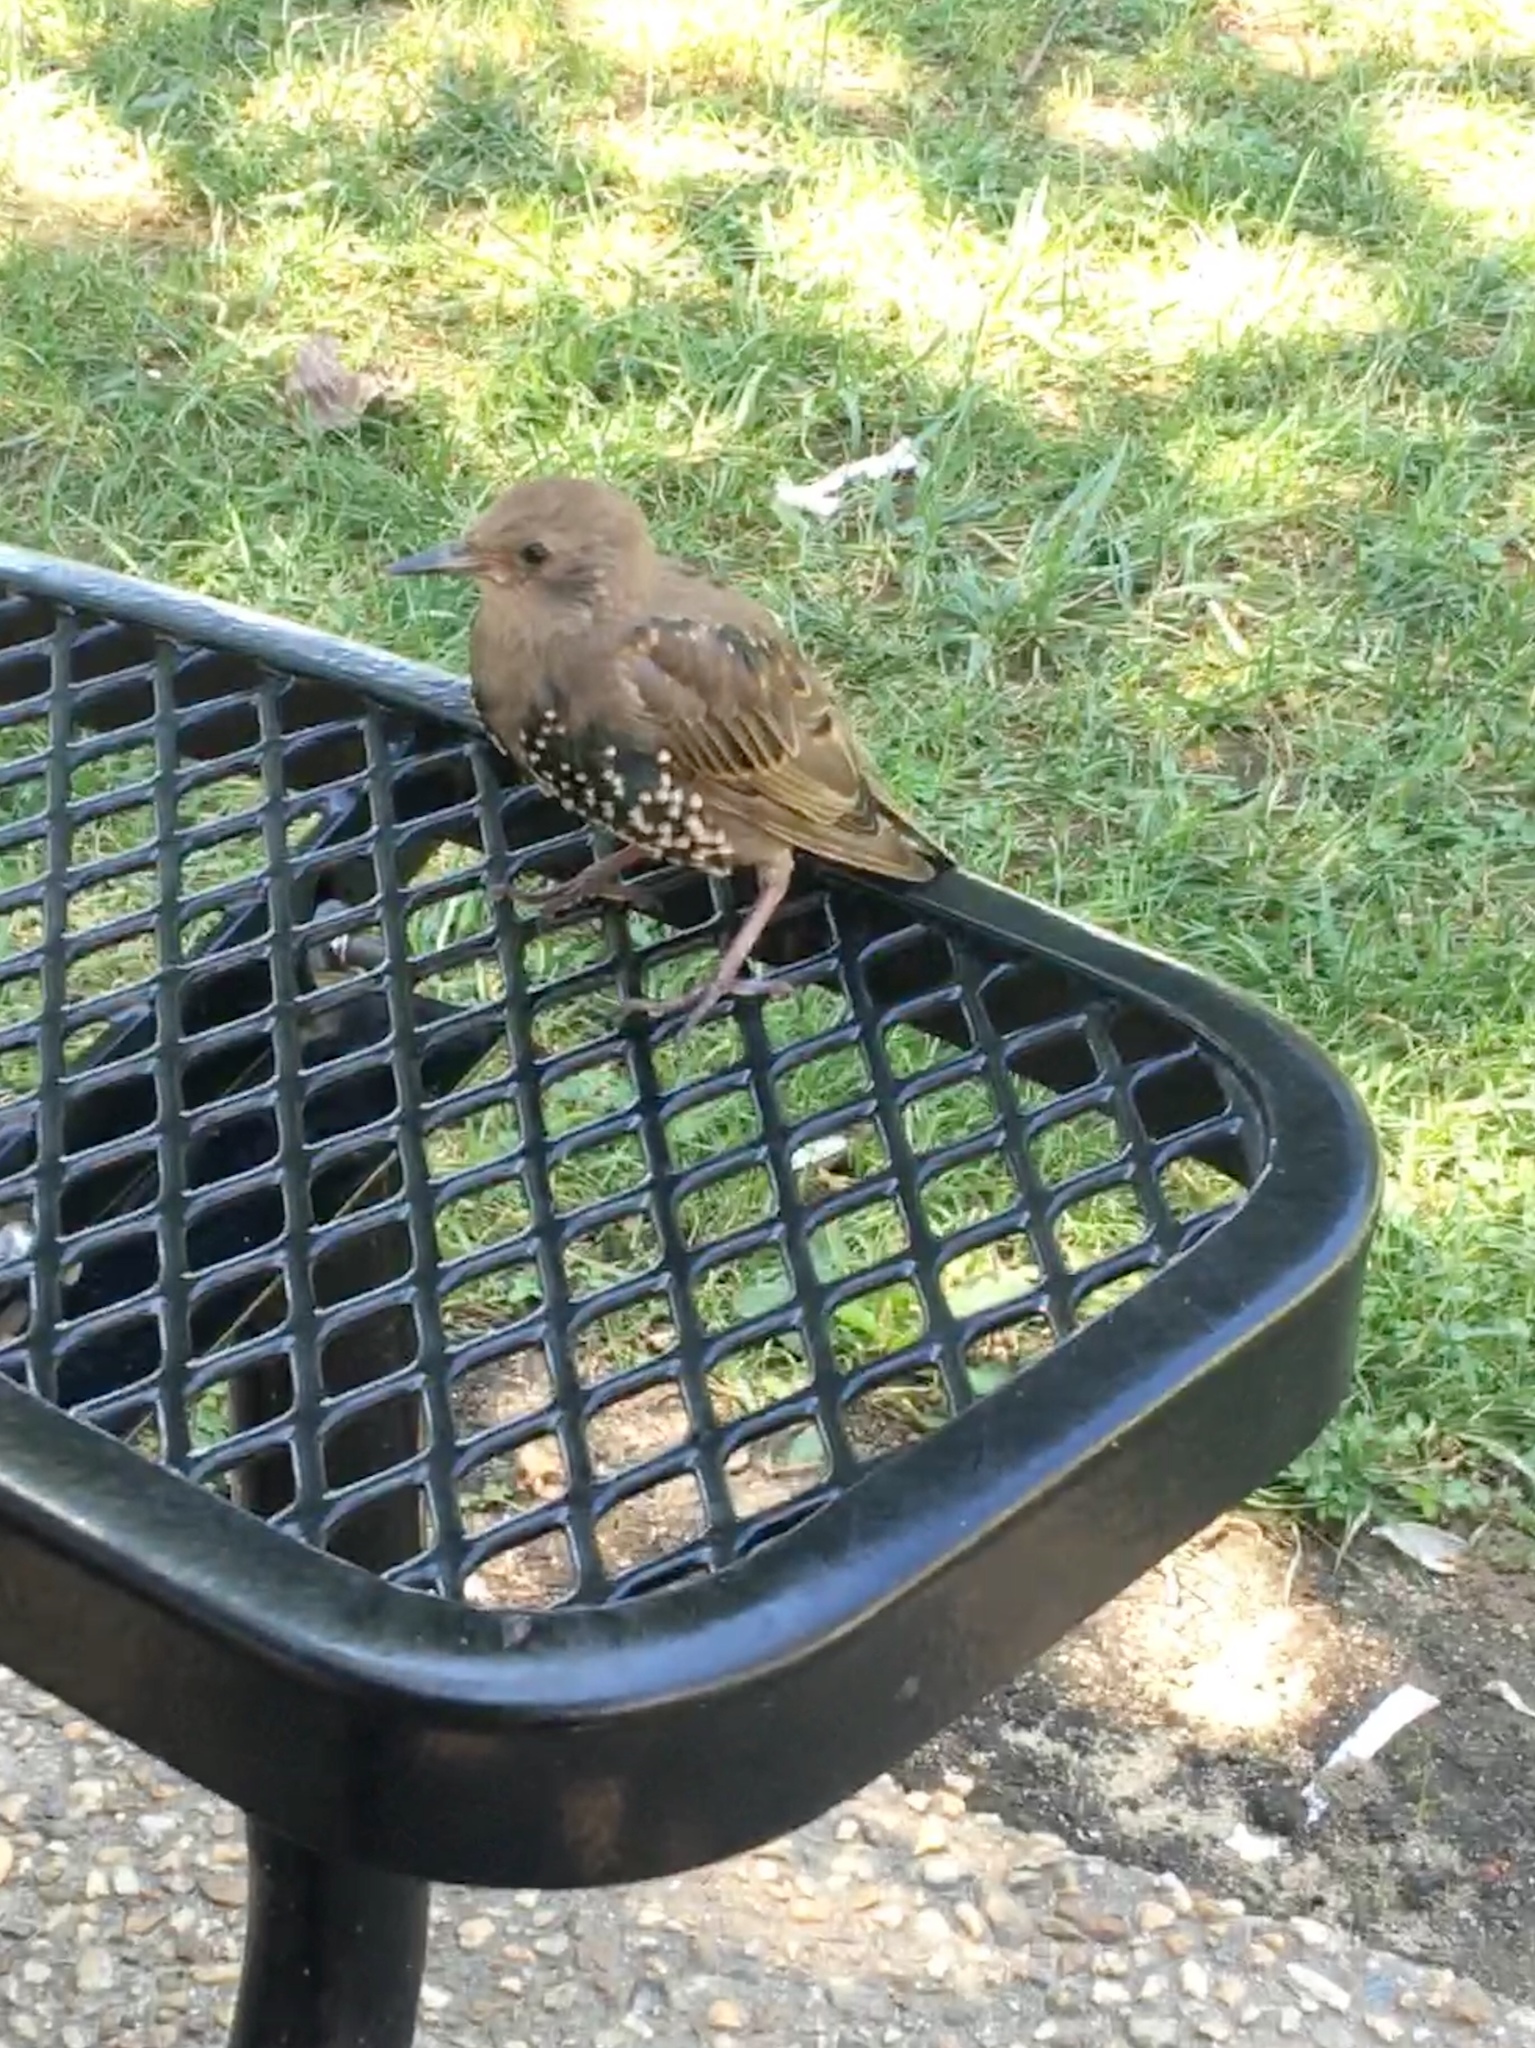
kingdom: Animalia
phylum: Chordata
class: Aves
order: Passeriformes
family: Sturnidae
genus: Sturnus
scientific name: Sturnus vulgaris
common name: Common starling
